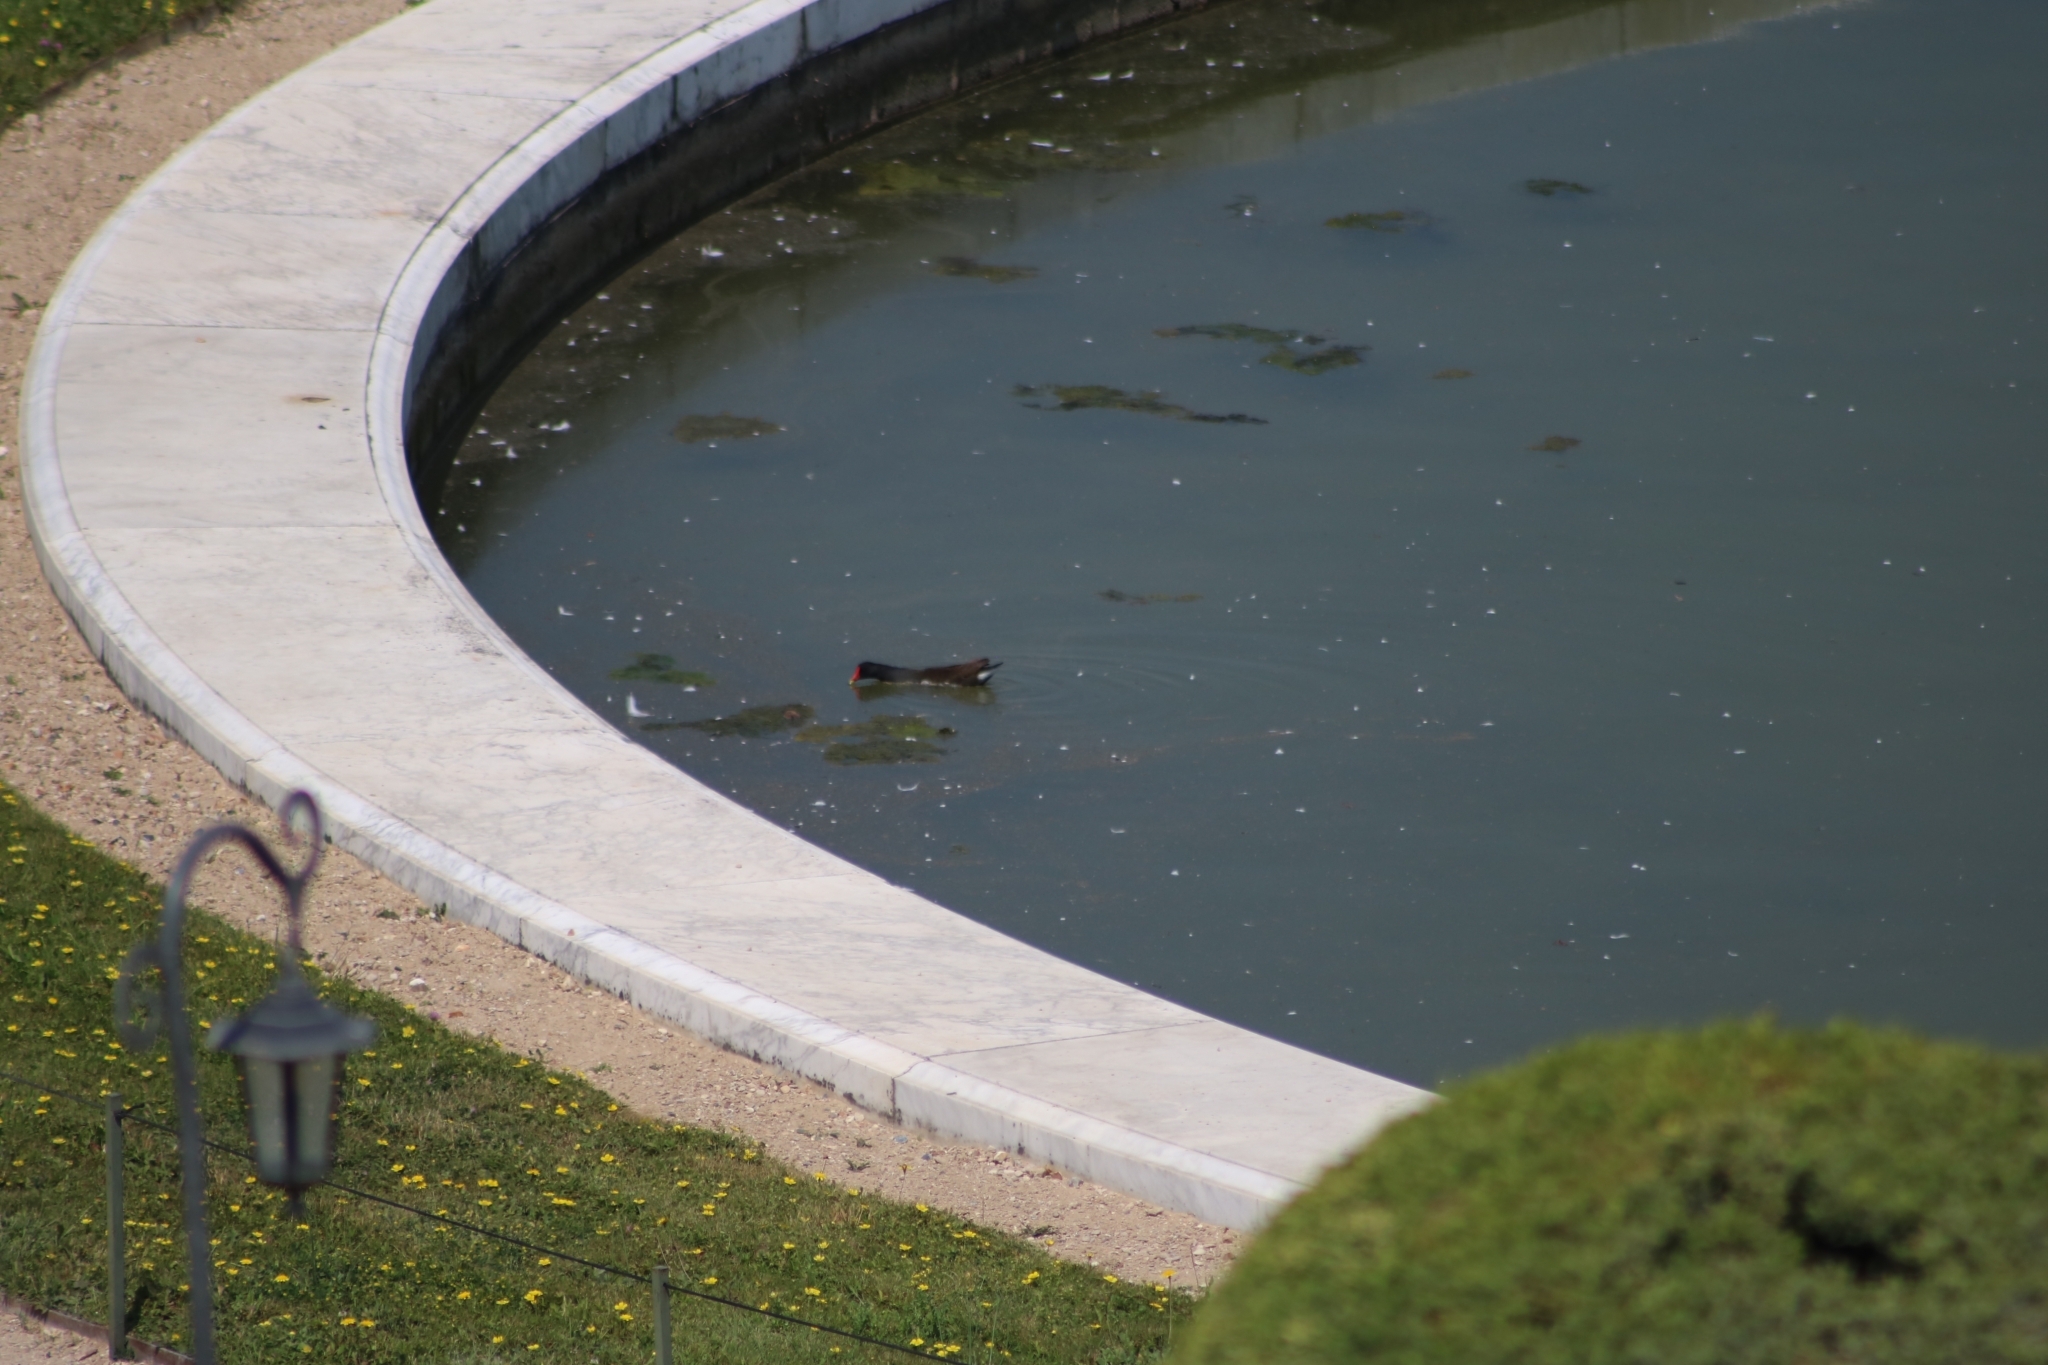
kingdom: Animalia
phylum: Chordata
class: Aves
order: Gruiformes
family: Rallidae
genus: Gallinula
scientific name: Gallinula chloropus
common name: Common moorhen
